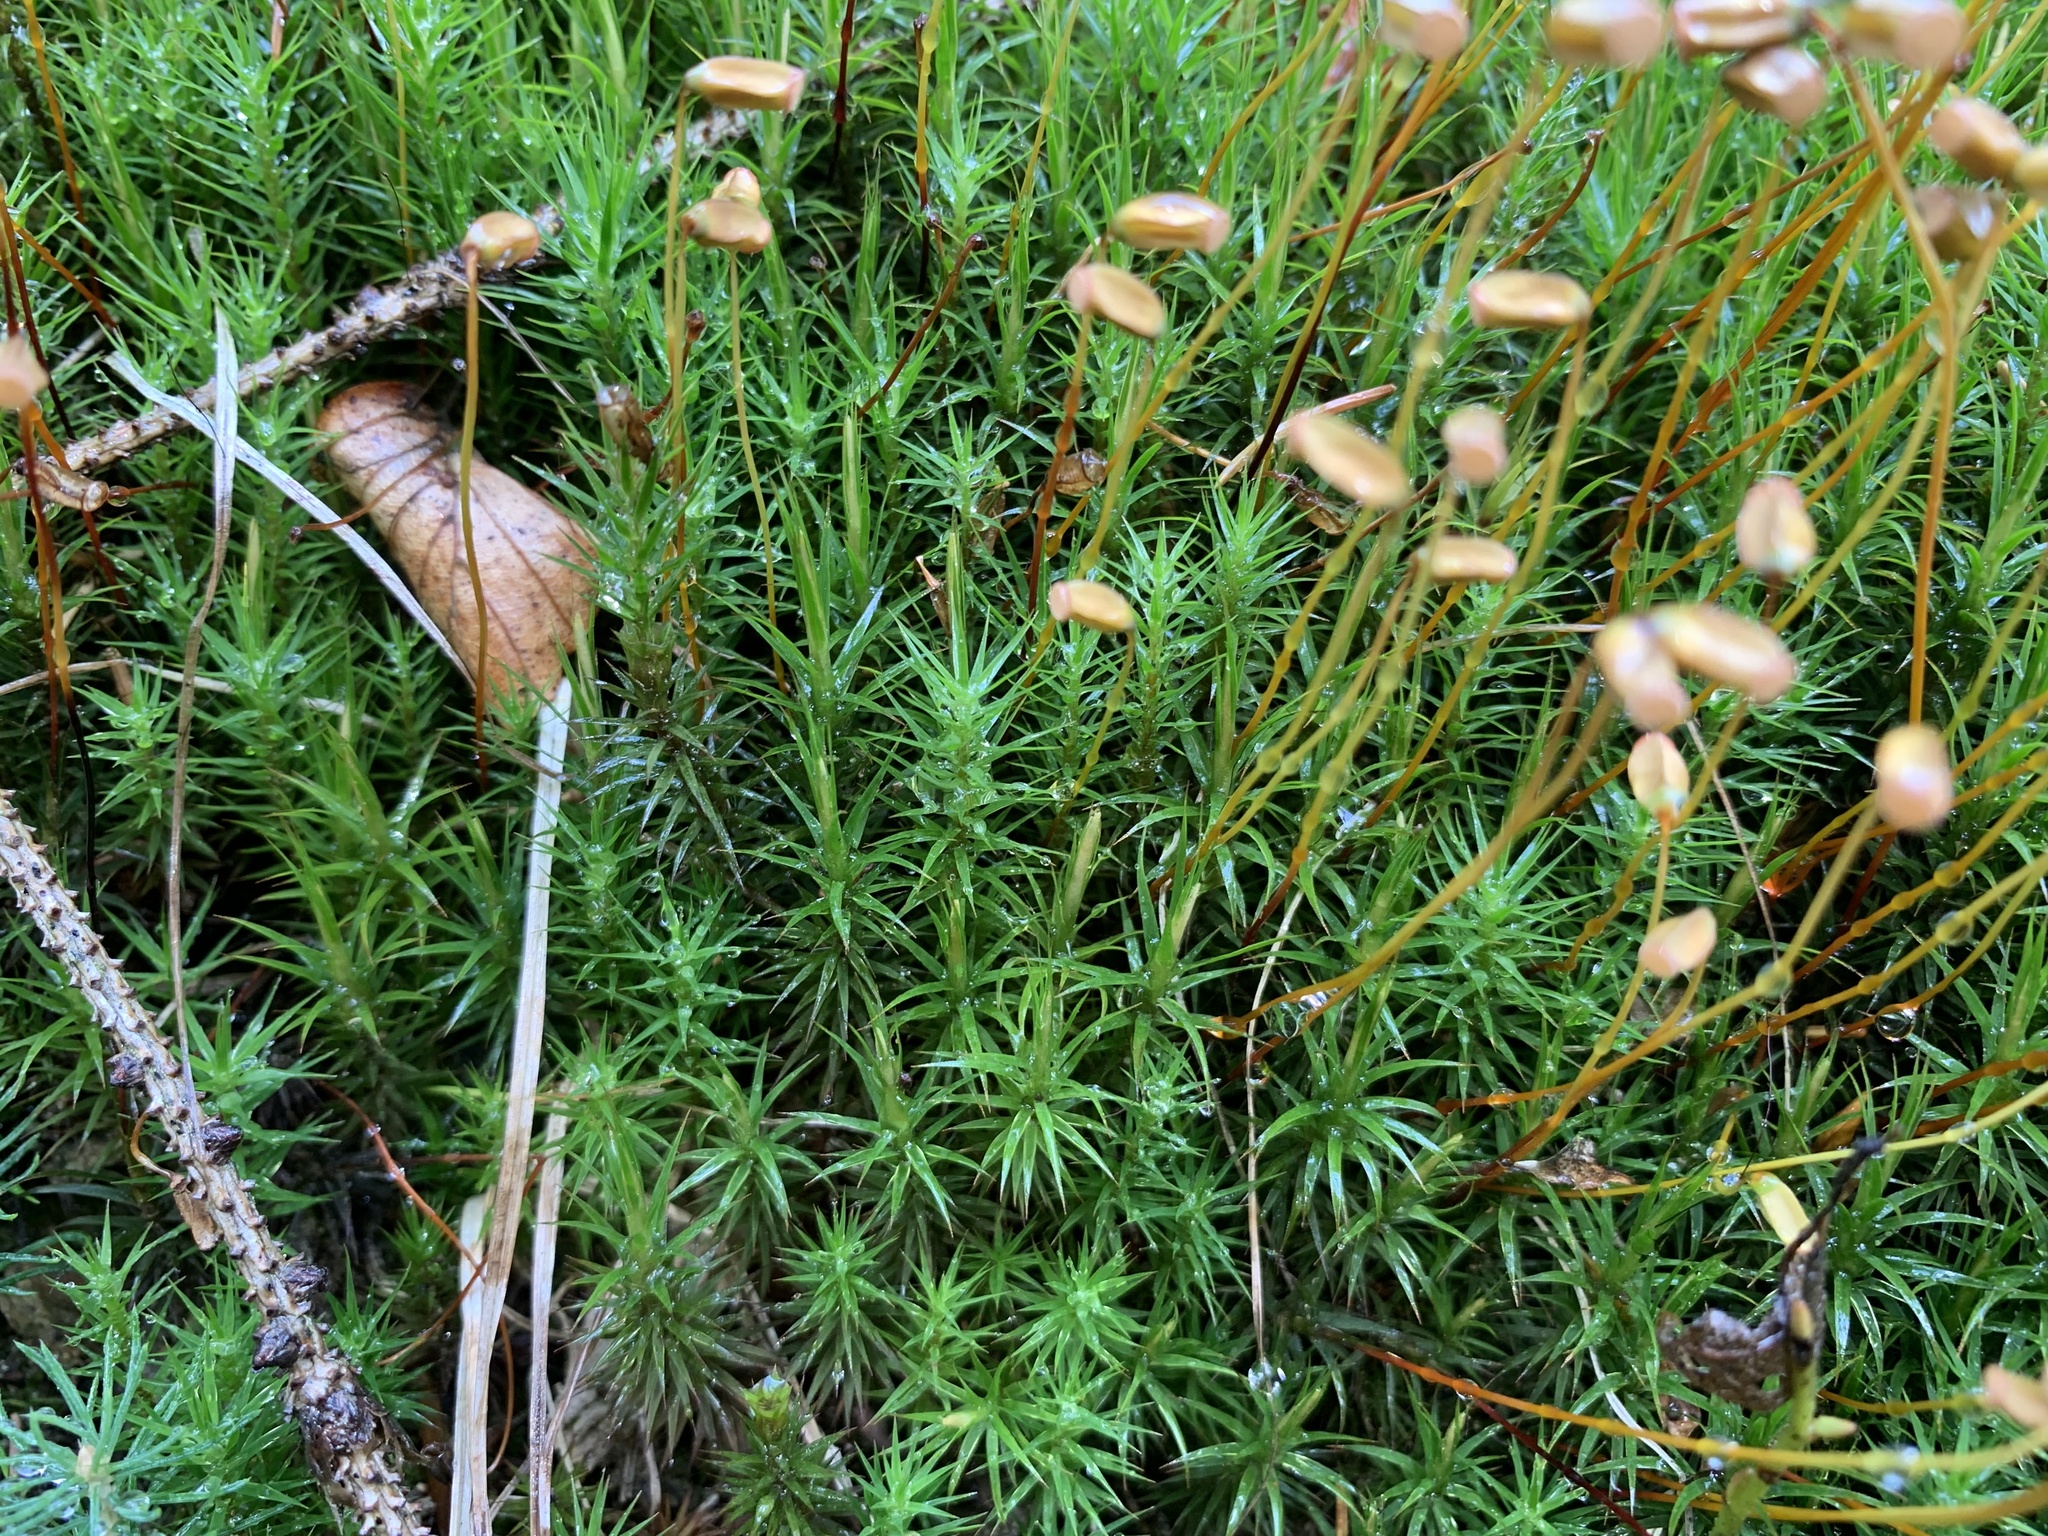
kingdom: Plantae
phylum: Bryophyta
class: Polytrichopsida
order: Polytrichales
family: Polytrichaceae
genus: Polytrichum
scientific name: Polytrichum formosum
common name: Bank haircap moss
